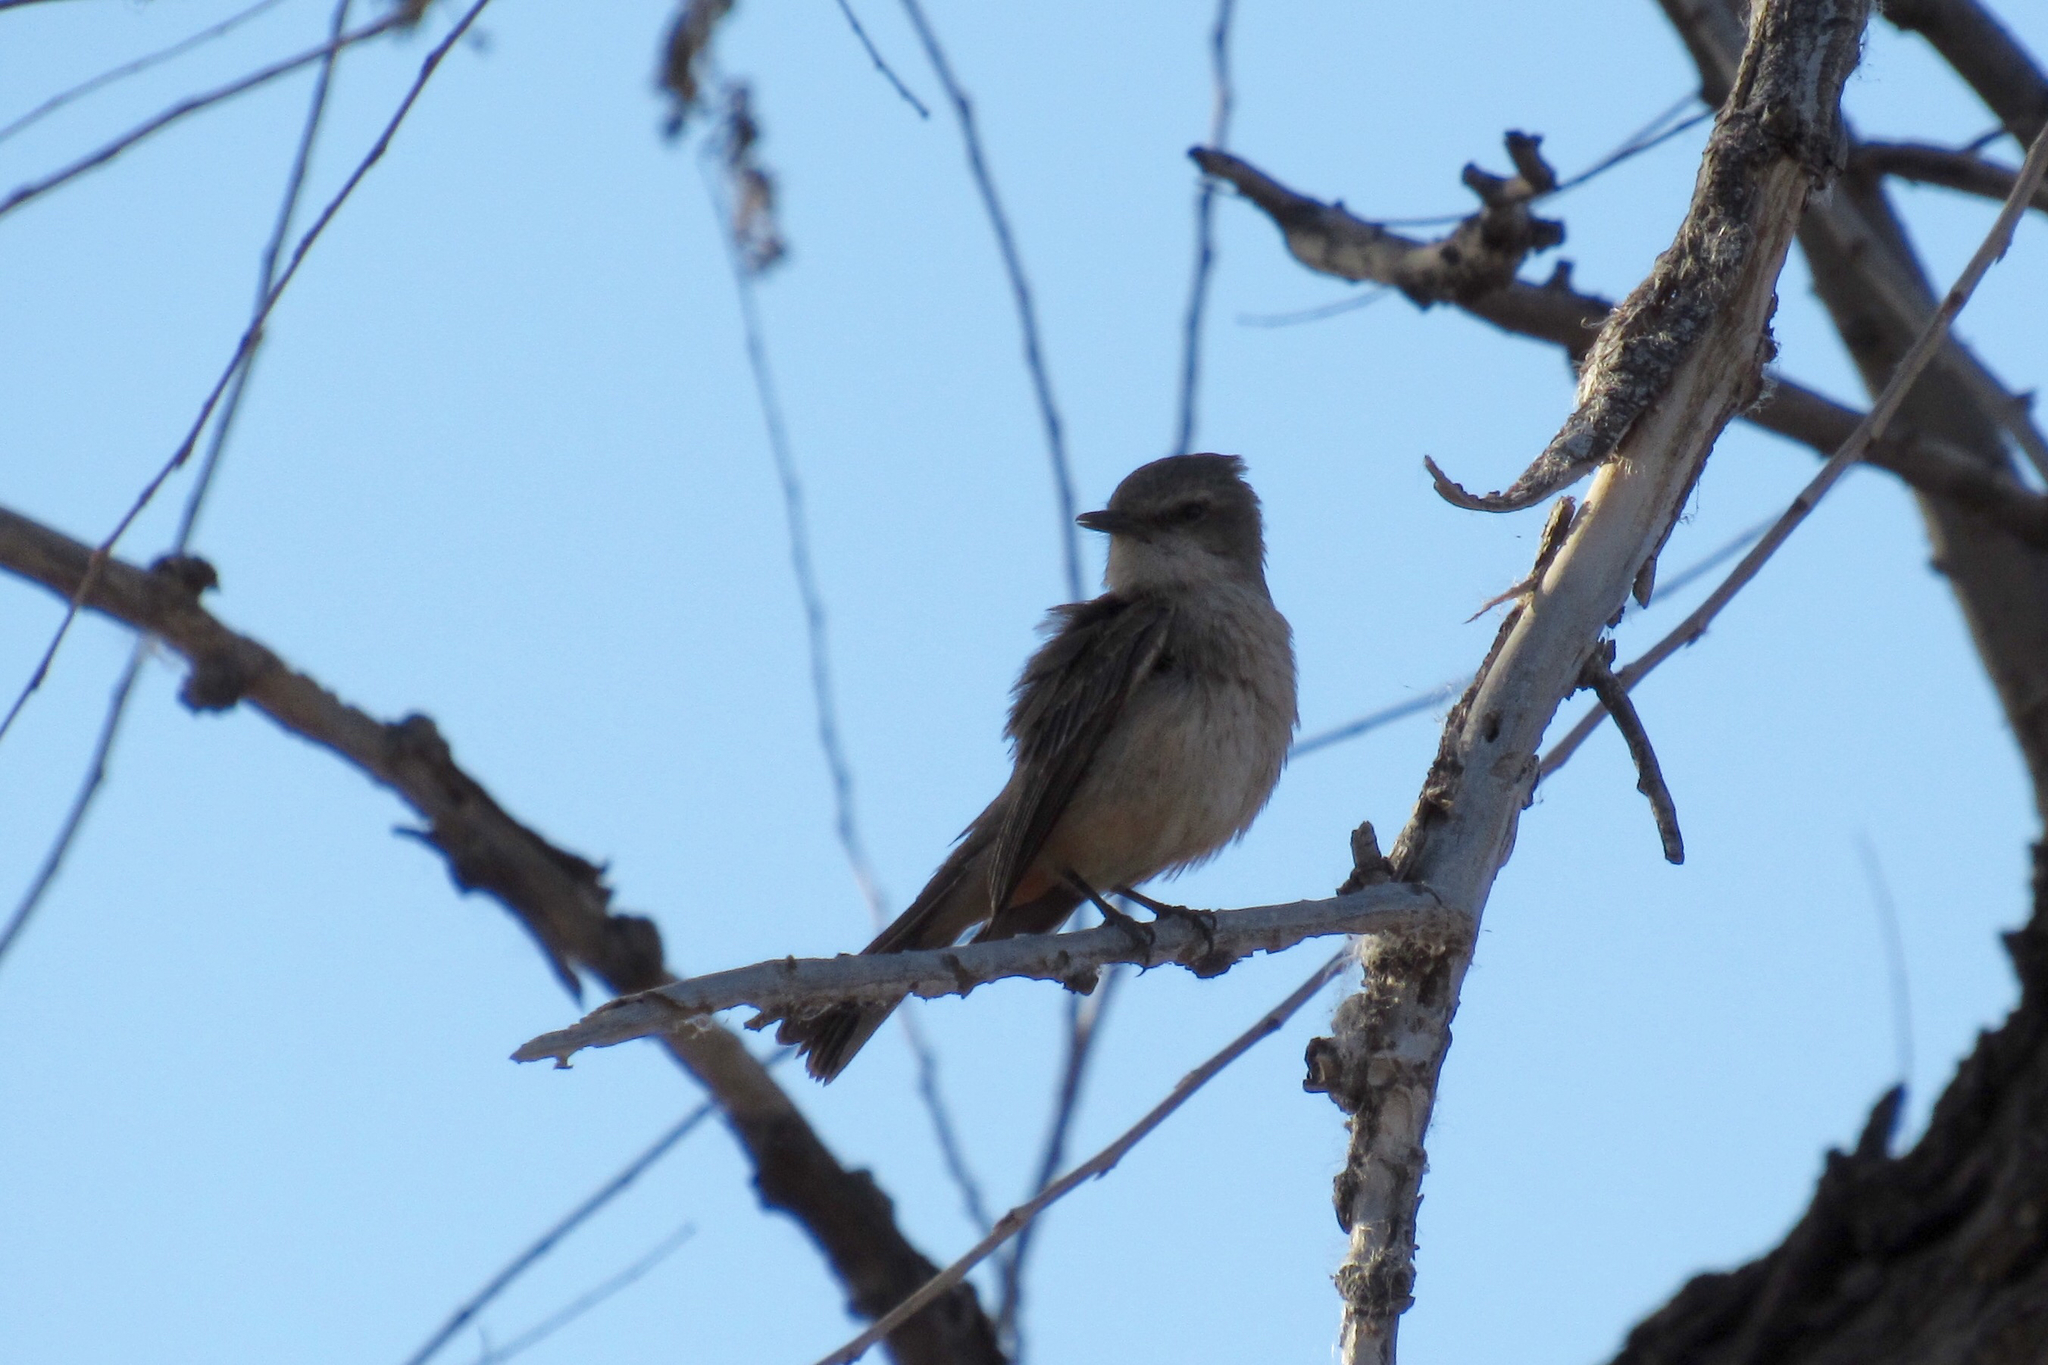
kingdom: Animalia
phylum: Chordata
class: Aves
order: Passeriformes
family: Tyrannidae
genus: Pyrocephalus
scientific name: Pyrocephalus rubinus
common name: Vermilion flycatcher
